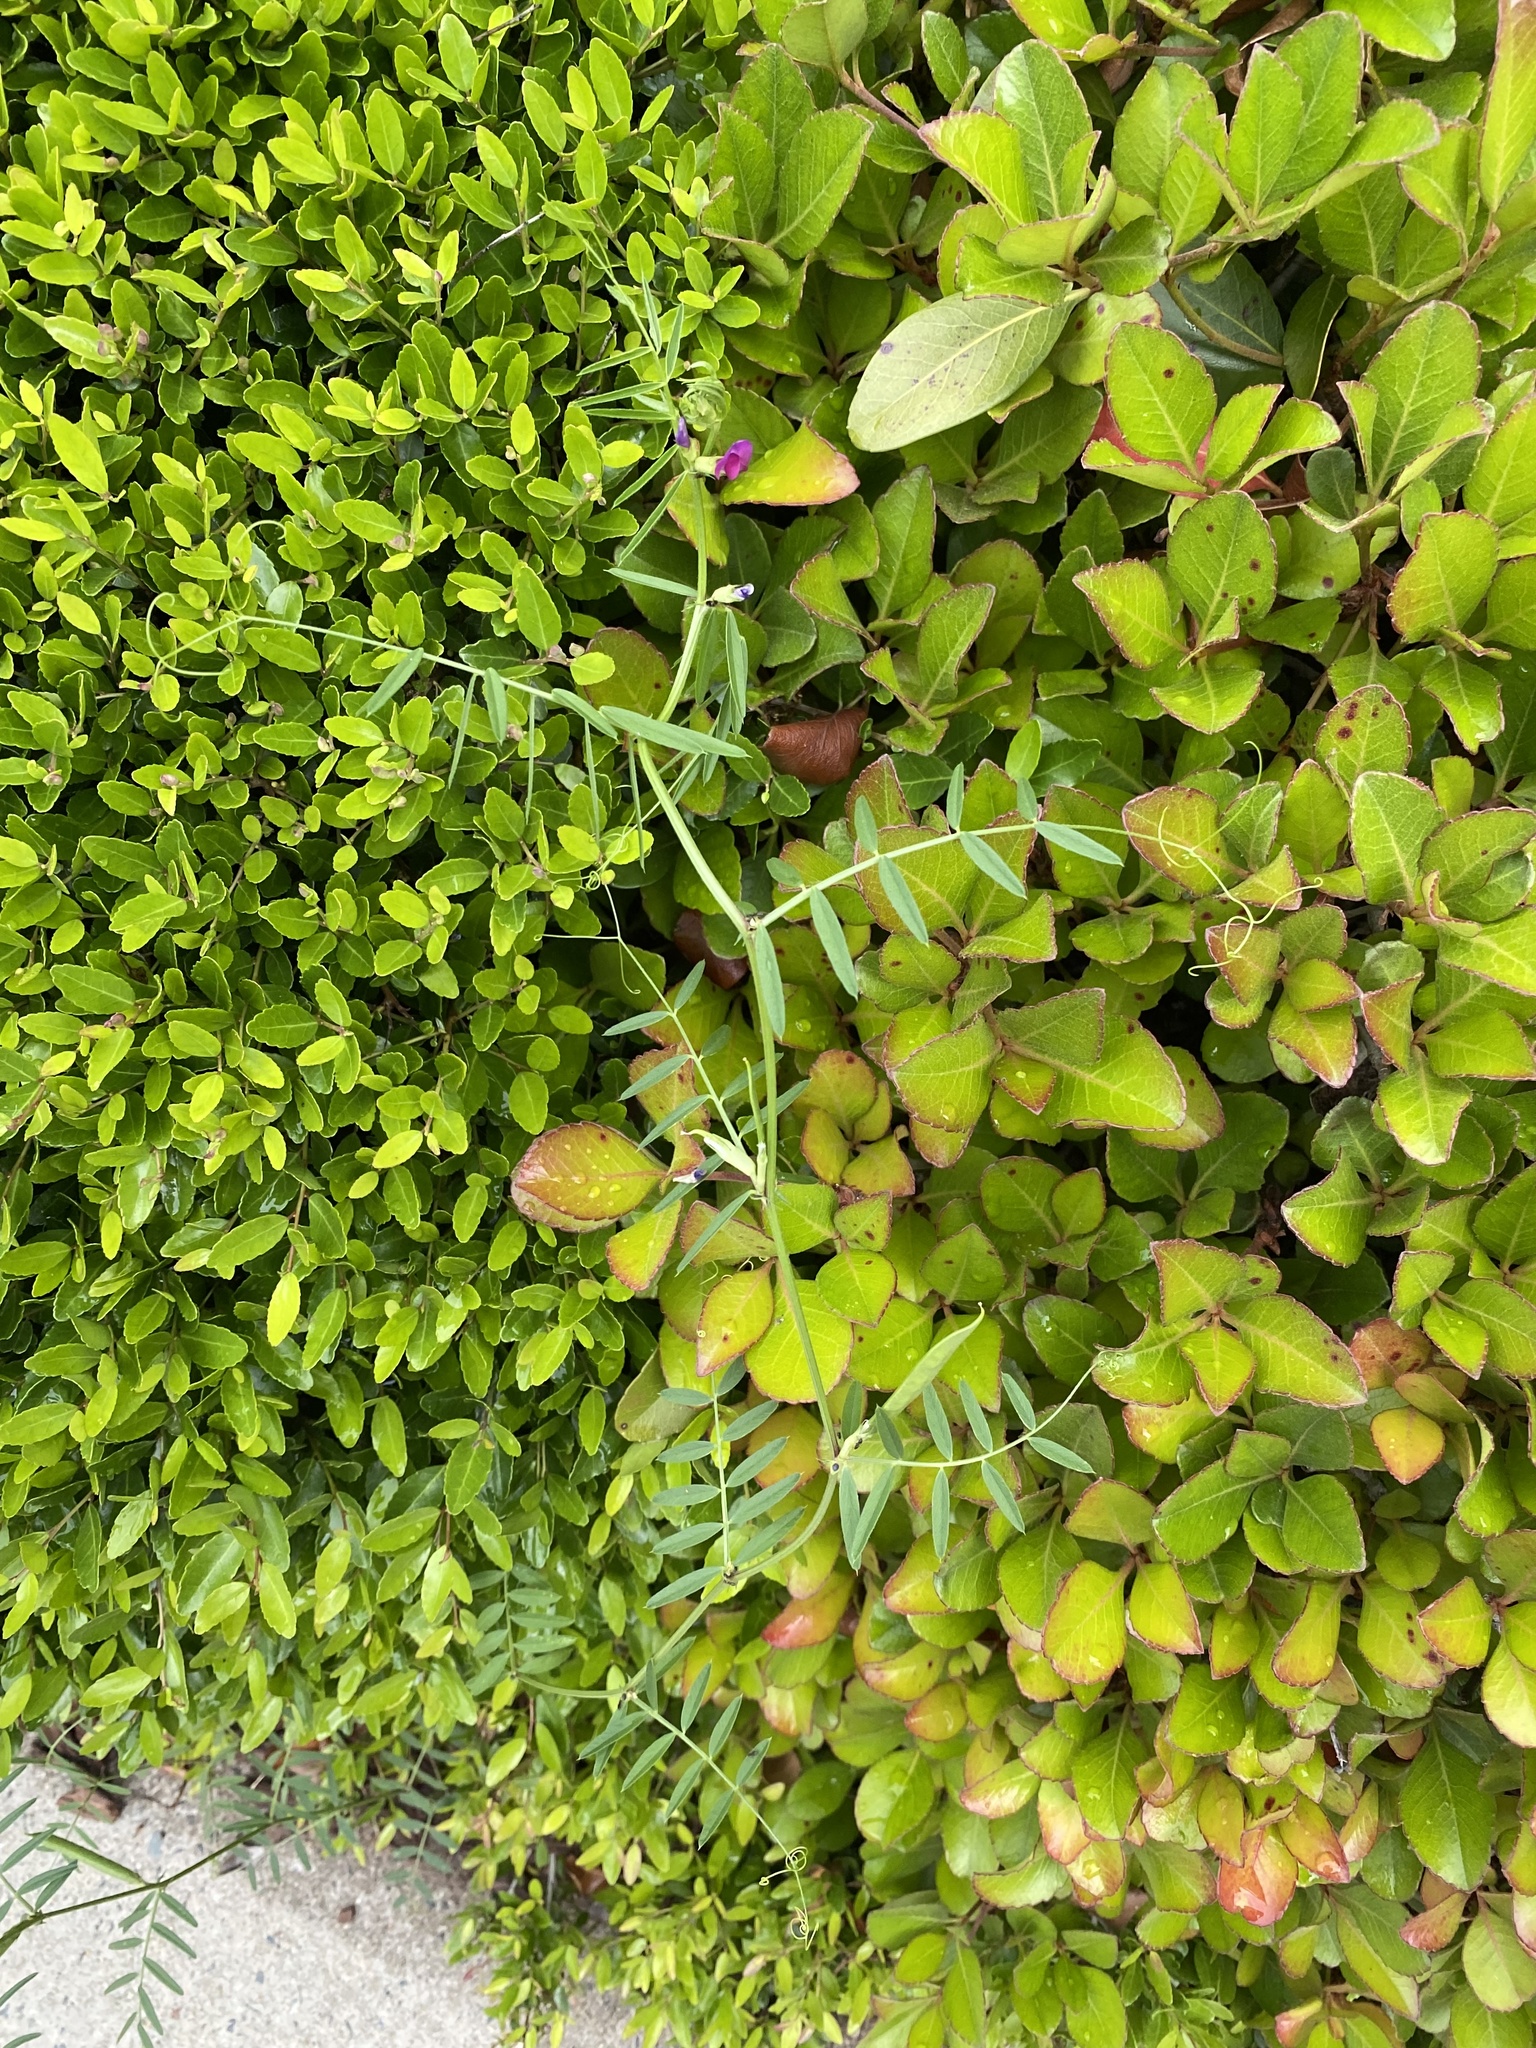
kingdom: Plantae
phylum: Tracheophyta
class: Magnoliopsida
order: Fabales
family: Fabaceae
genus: Vicia
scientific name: Vicia sativa
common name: Garden vetch
